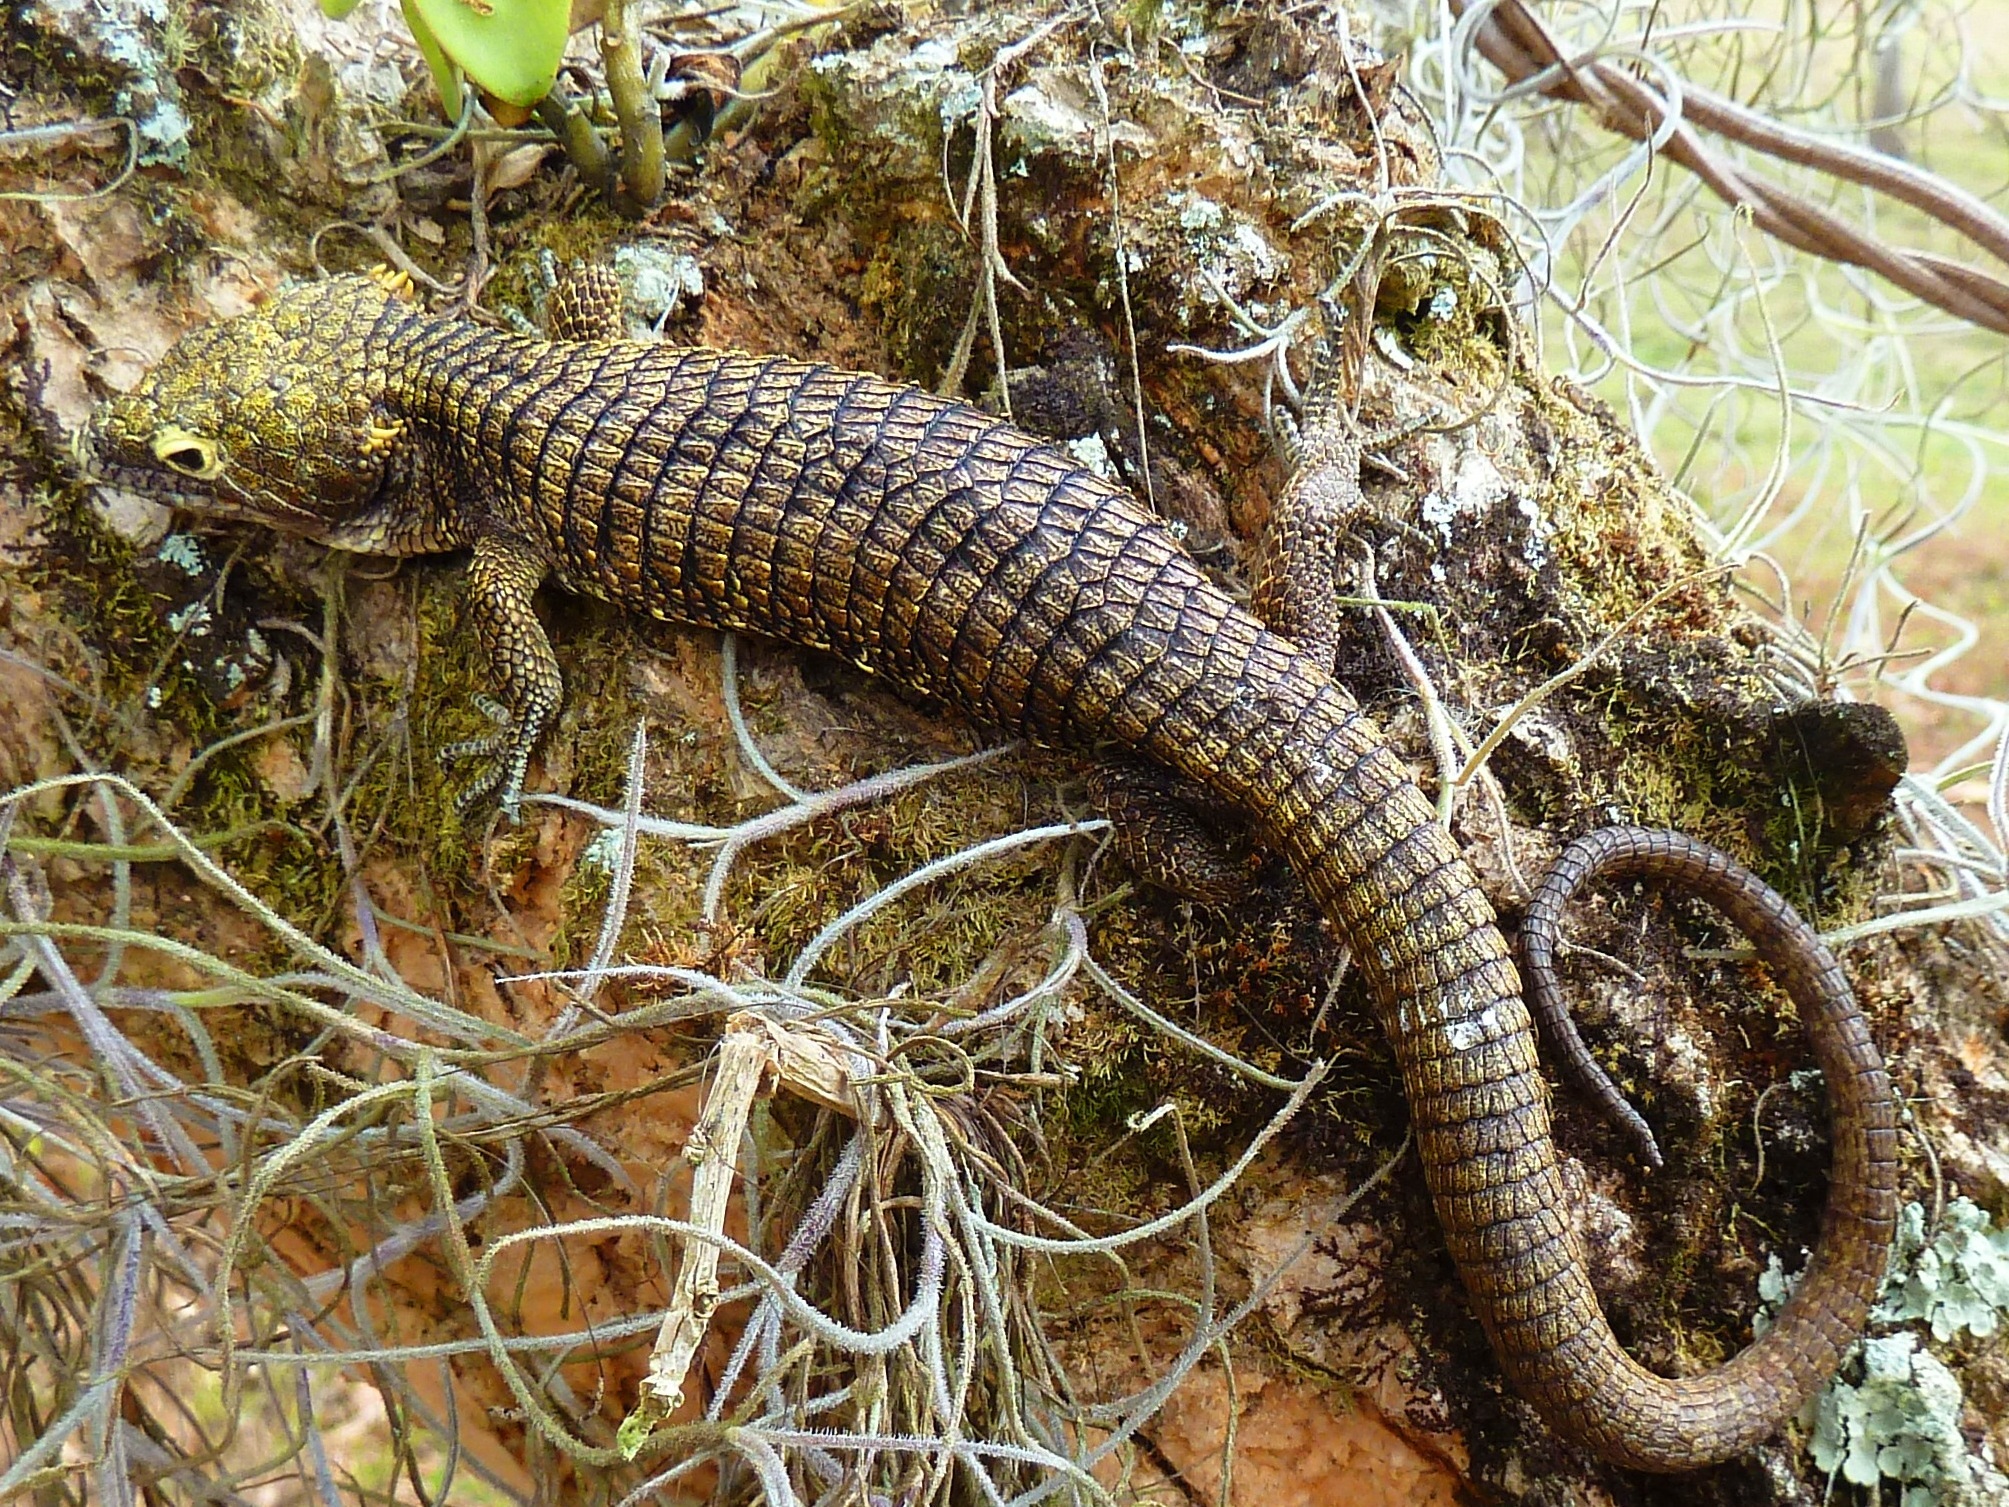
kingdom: Animalia
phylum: Chordata
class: Squamata
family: Anguidae
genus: Abronia
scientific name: Abronia campbelli
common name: Campbell's alligator lizard
